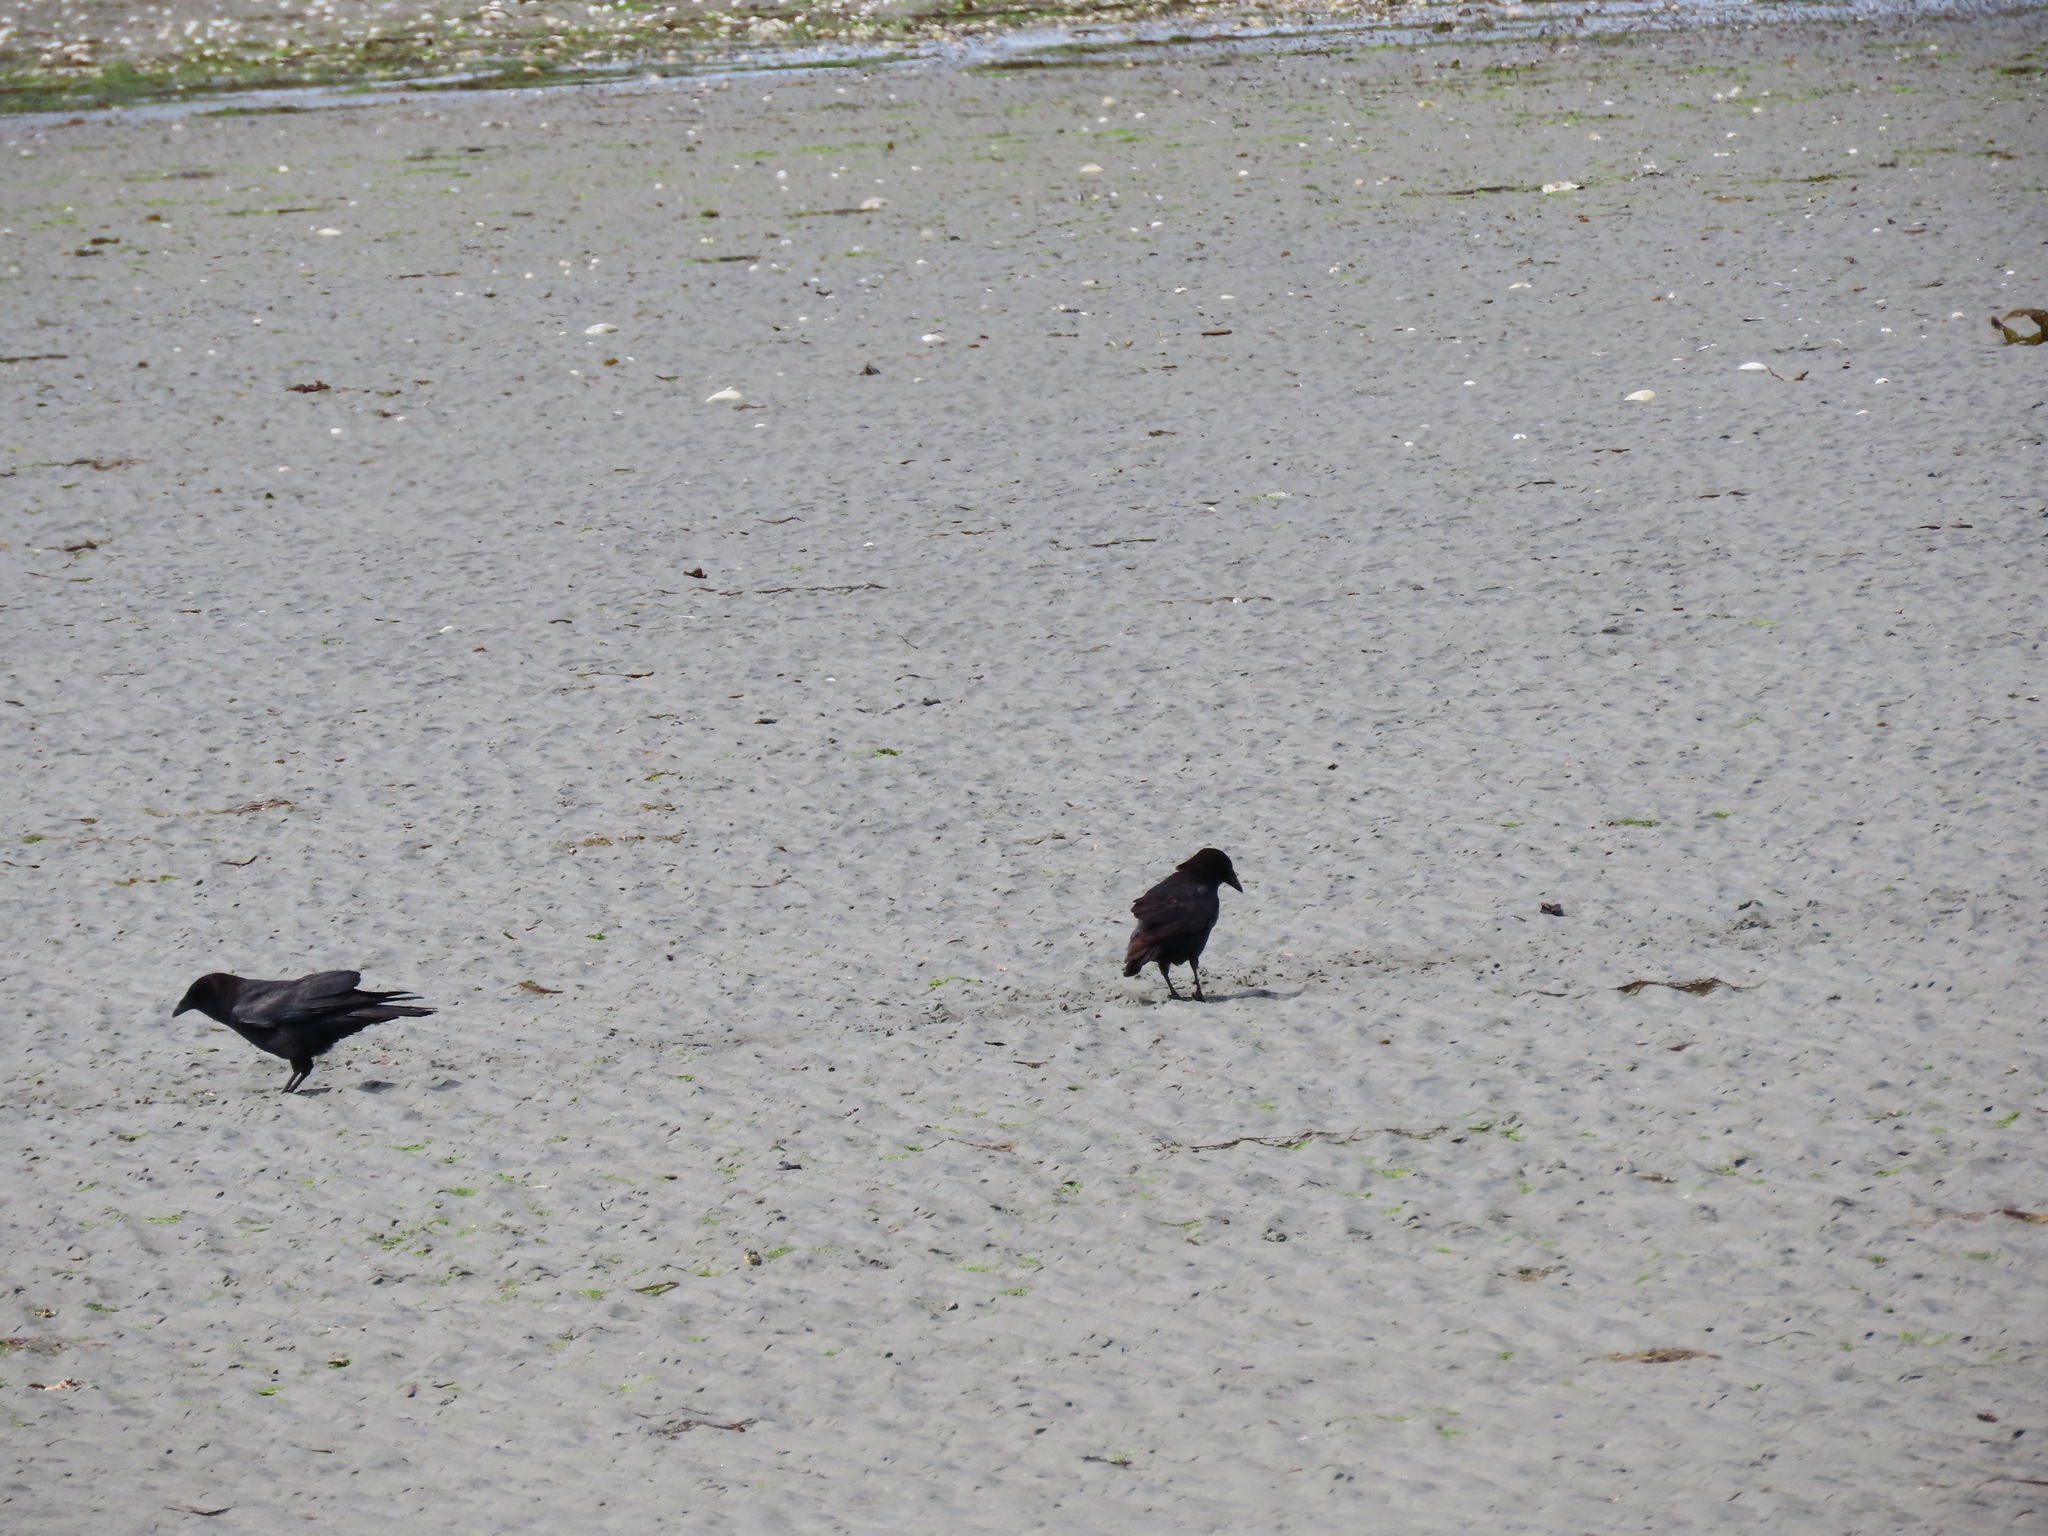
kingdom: Animalia
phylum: Chordata
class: Aves
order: Passeriformes
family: Corvidae
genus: Corvus
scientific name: Corvus brachyrhynchos
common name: American crow
